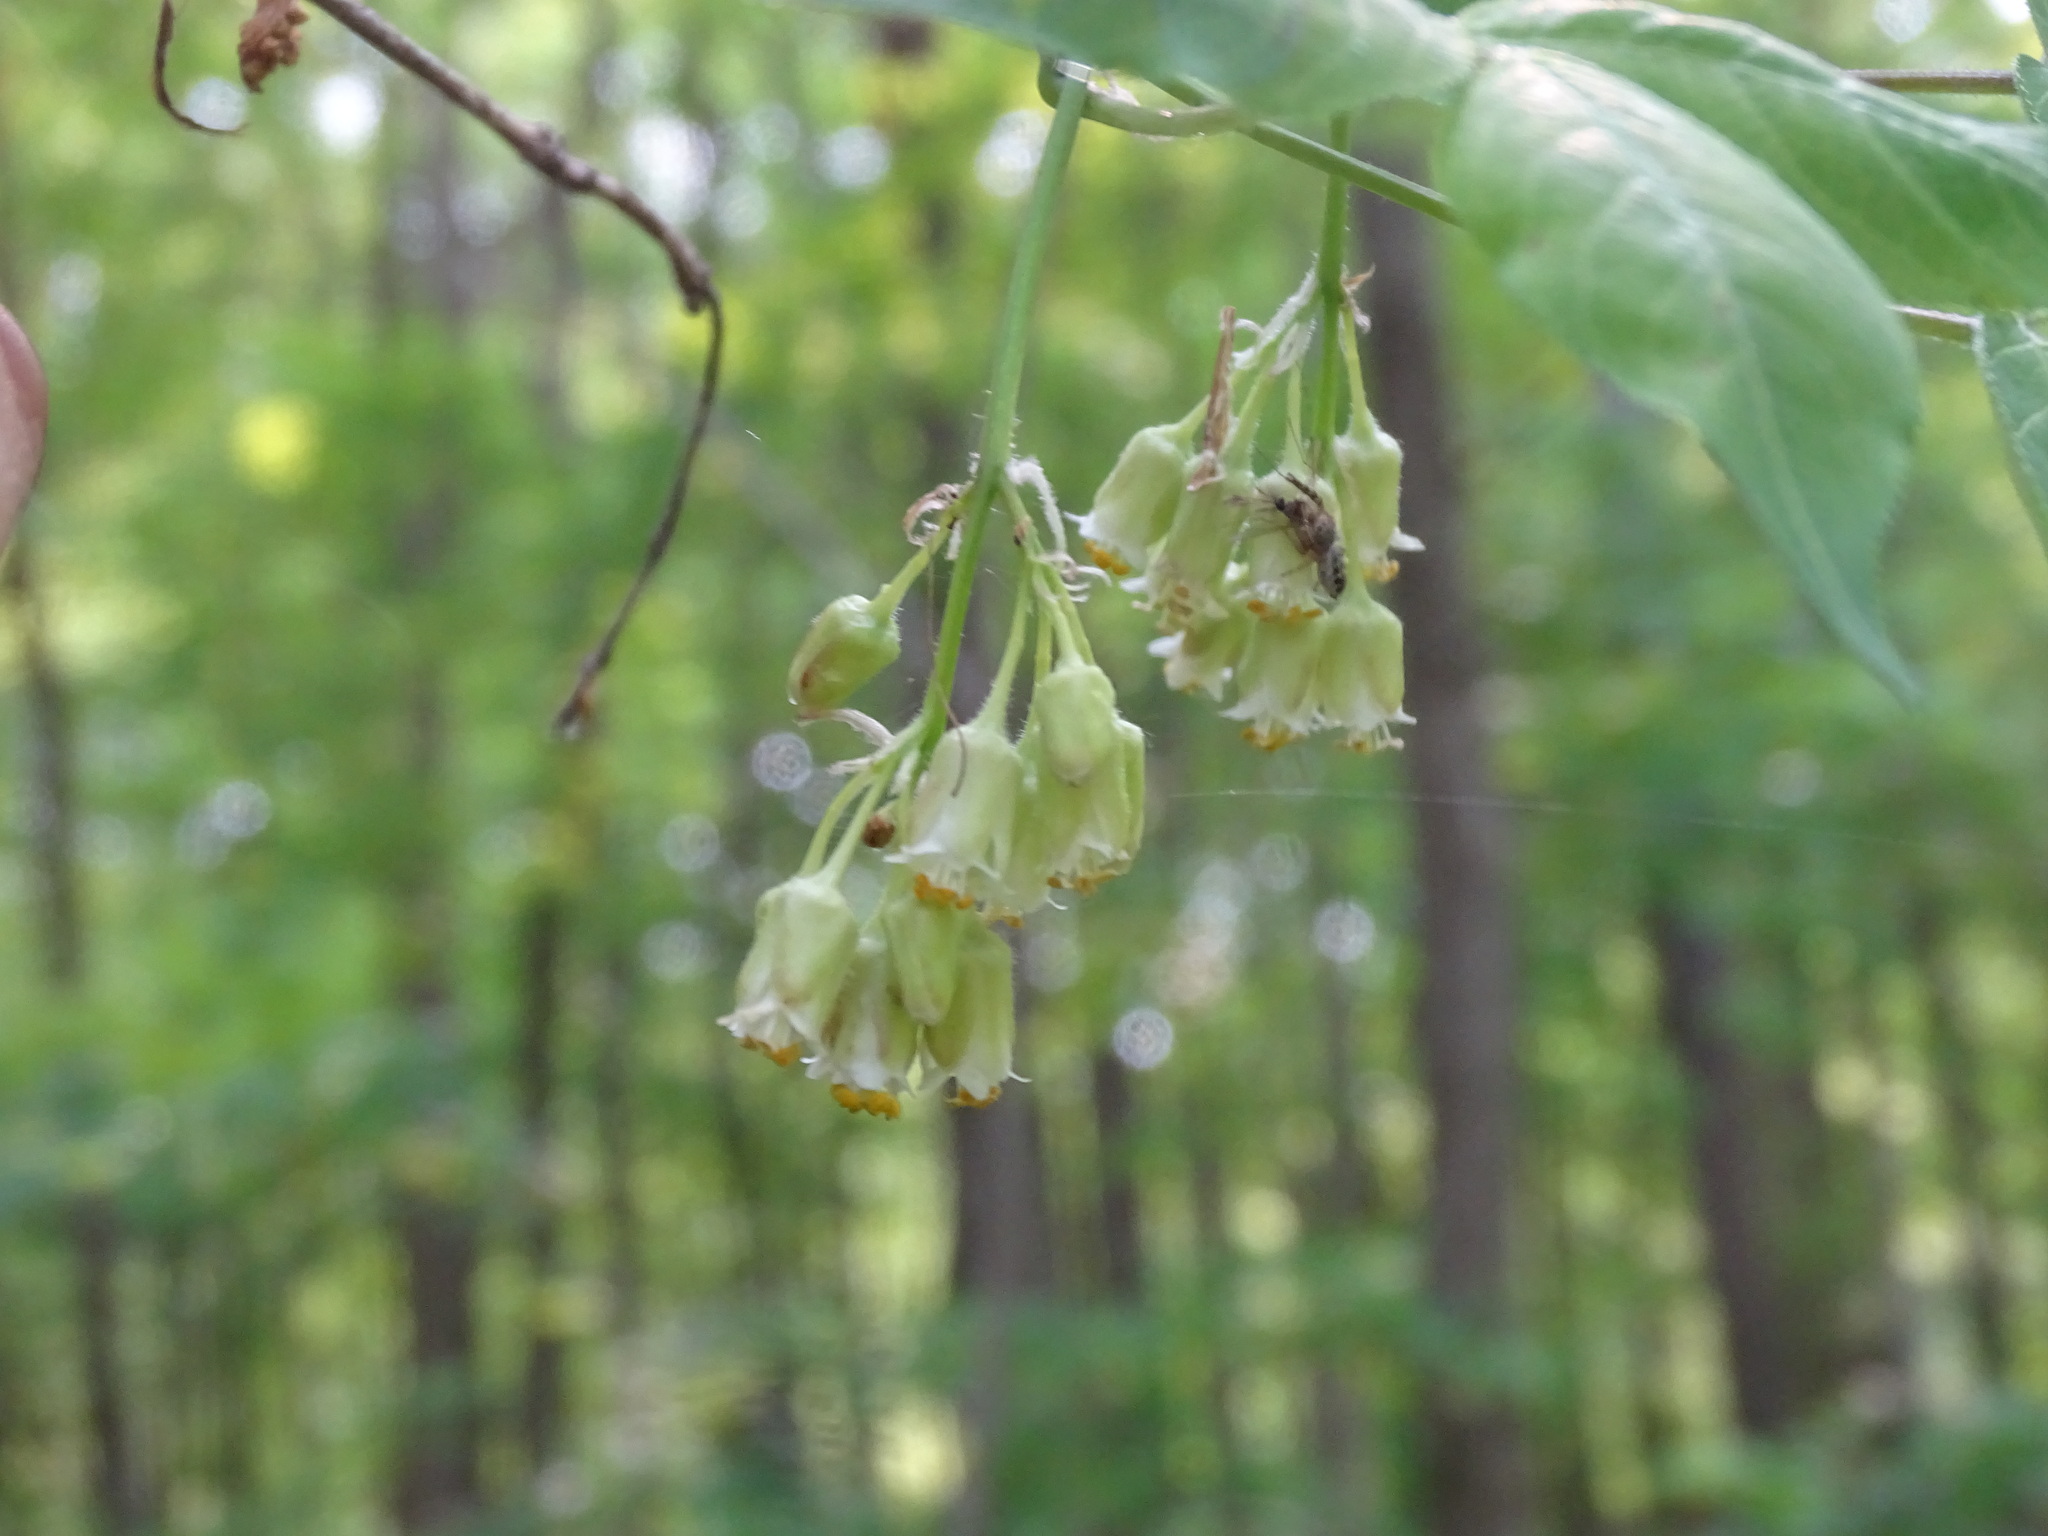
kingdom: Plantae
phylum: Tracheophyta
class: Magnoliopsida
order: Crossosomatales
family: Staphyleaceae
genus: Staphylea
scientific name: Staphylea trifolia
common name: American bladdernut
